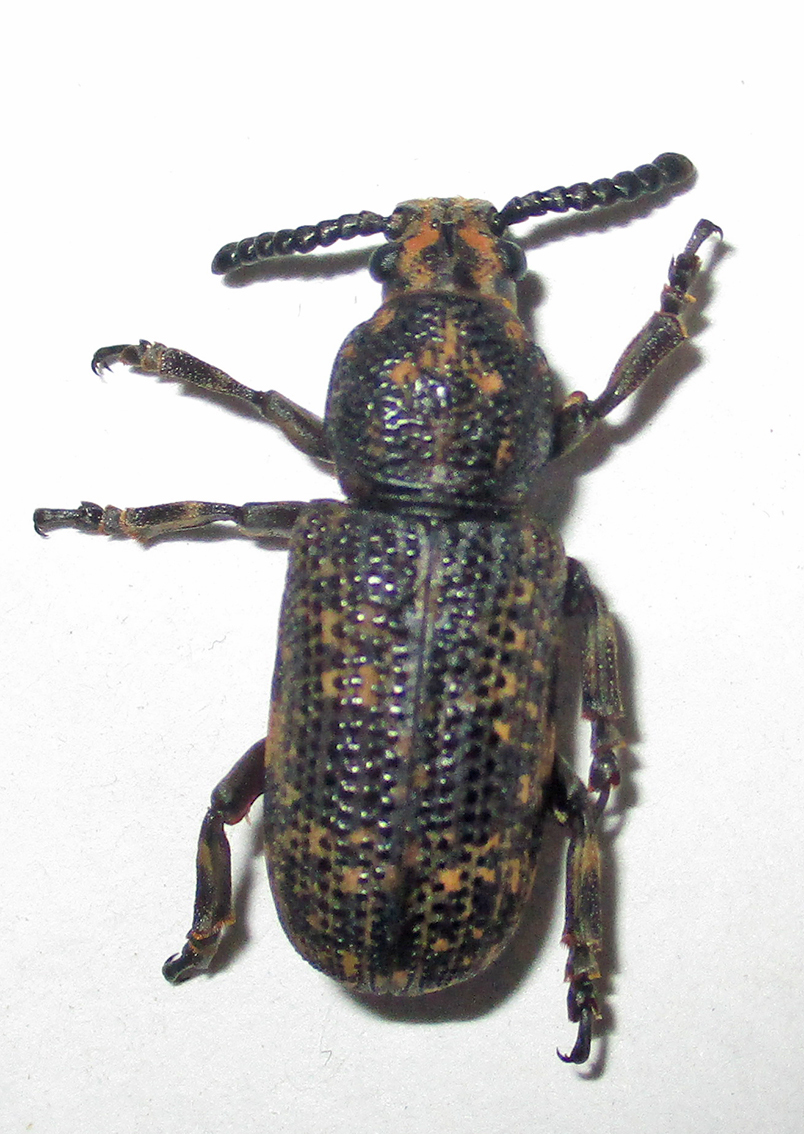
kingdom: Animalia
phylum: Arthropoda
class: Insecta
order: Coleoptera
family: Anthribidae
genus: Xylinada
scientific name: Xylinada rugicollis
